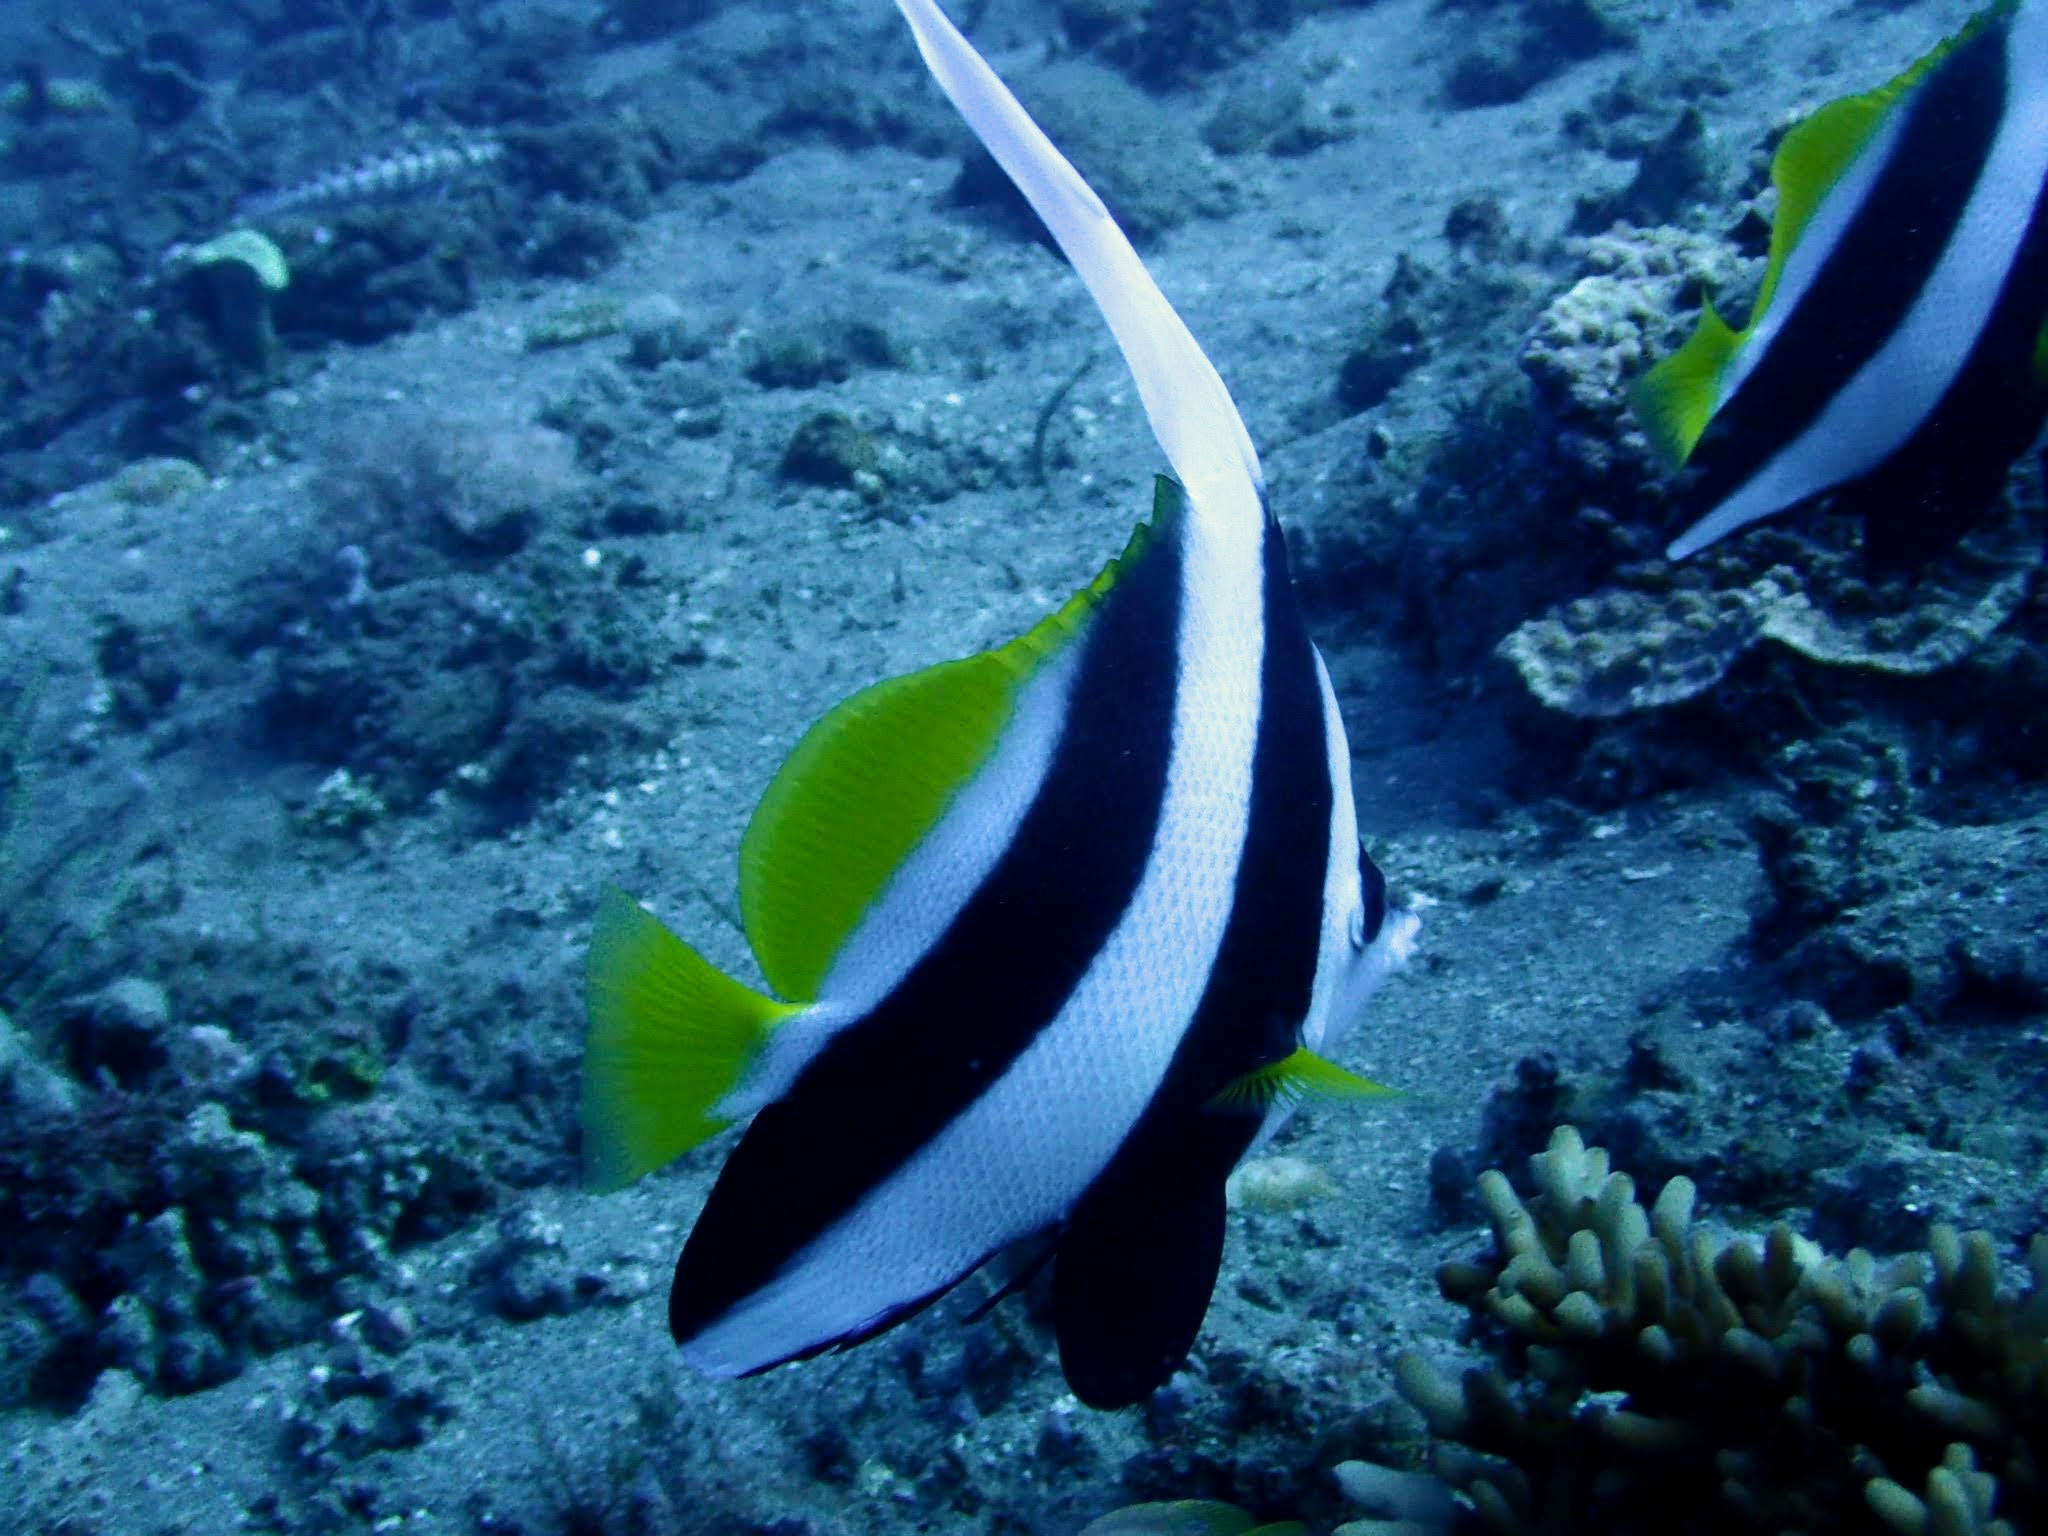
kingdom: Animalia
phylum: Chordata
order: Perciformes
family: Chaetodontidae
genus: Heniochus
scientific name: Heniochus acuminatus
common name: Pennant coralfish
